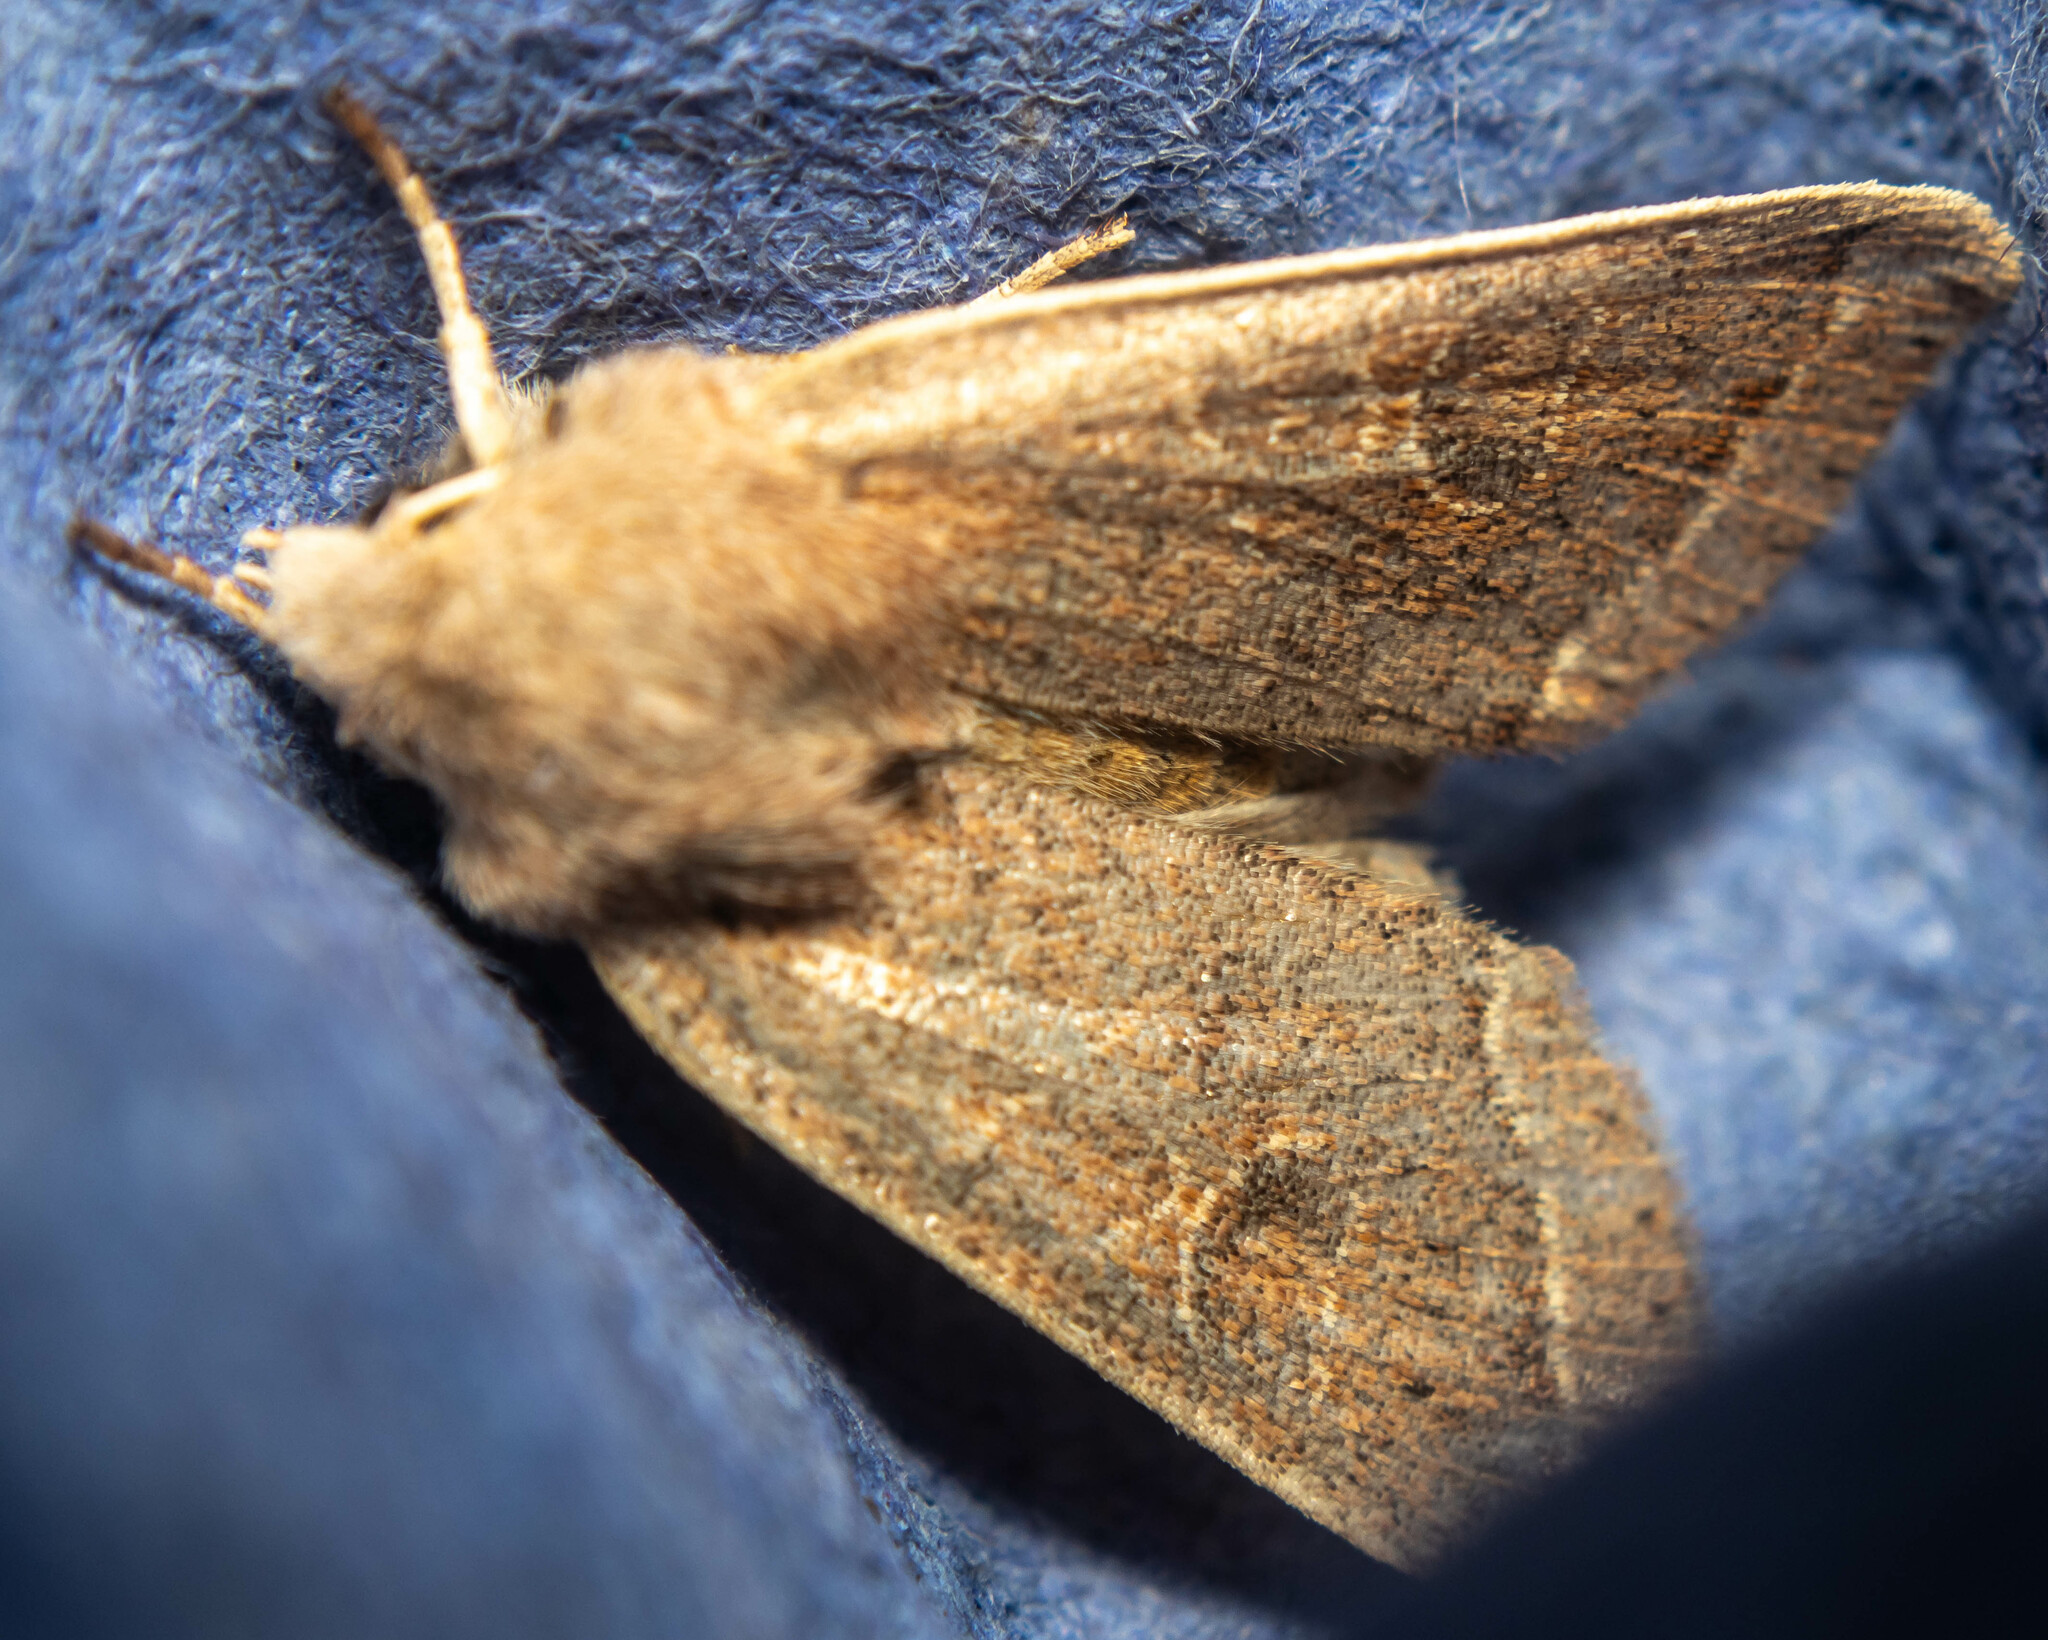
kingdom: Animalia
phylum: Arthropoda
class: Insecta
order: Lepidoptera
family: Noctuidae
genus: Orthosia
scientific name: Orthosia cerasi
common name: Common quaker
